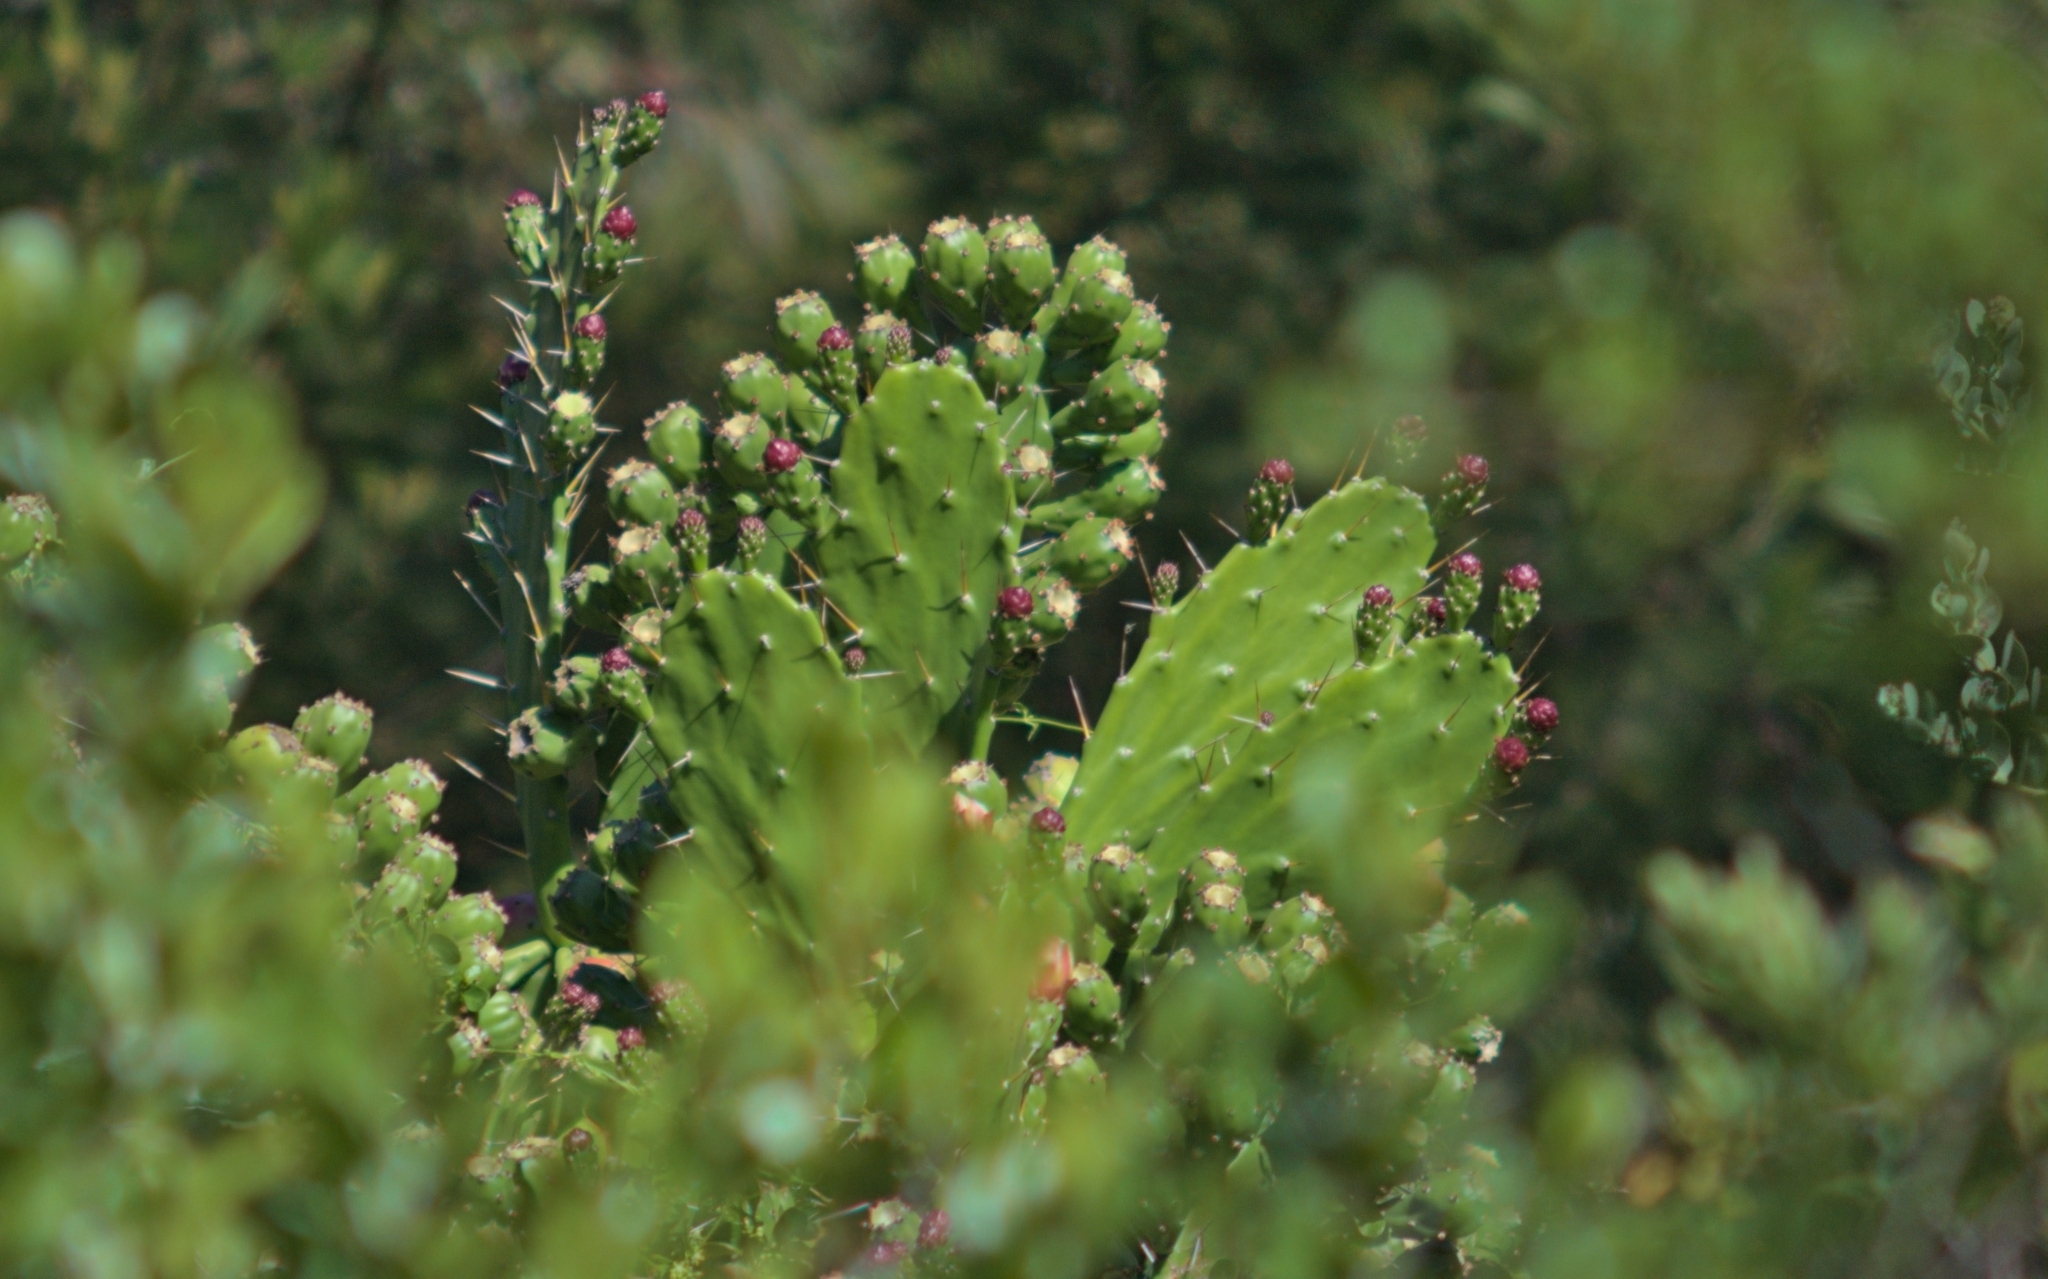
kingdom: Plantae
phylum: Tracheophyta
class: Magnoliopsida
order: Caryophyllales
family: Cactaceae
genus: Opuntia
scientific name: Opuntia monacantha
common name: Common pricklypear
